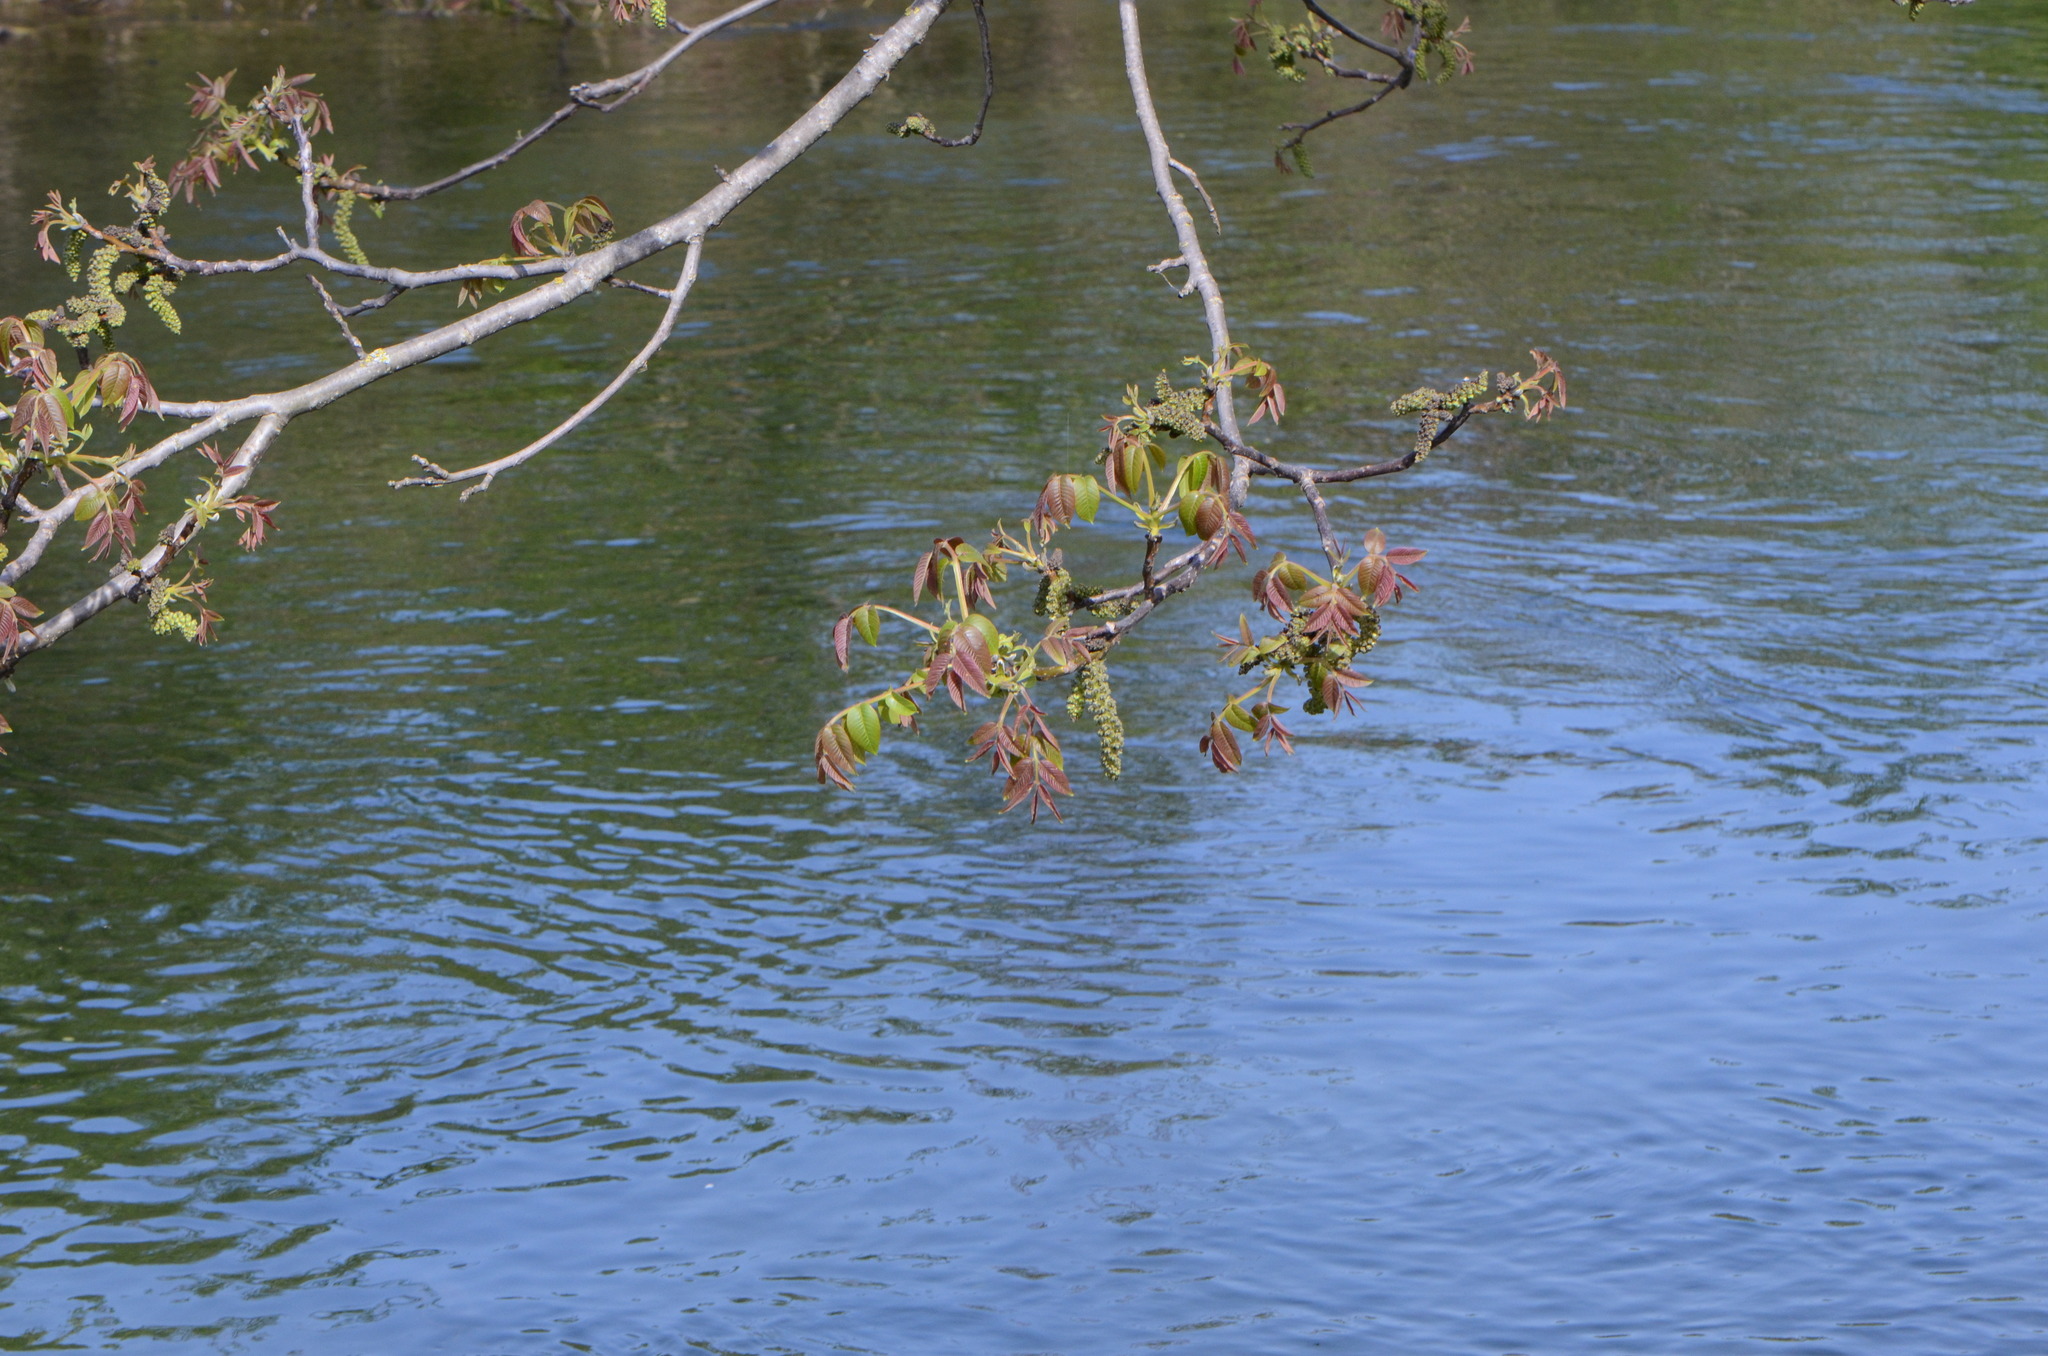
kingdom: Plantae
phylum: Tracheophyta
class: Magnoliopsida
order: Fagales
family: Juglandaceae
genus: Juglans
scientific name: Juglans regia
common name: Walnut
